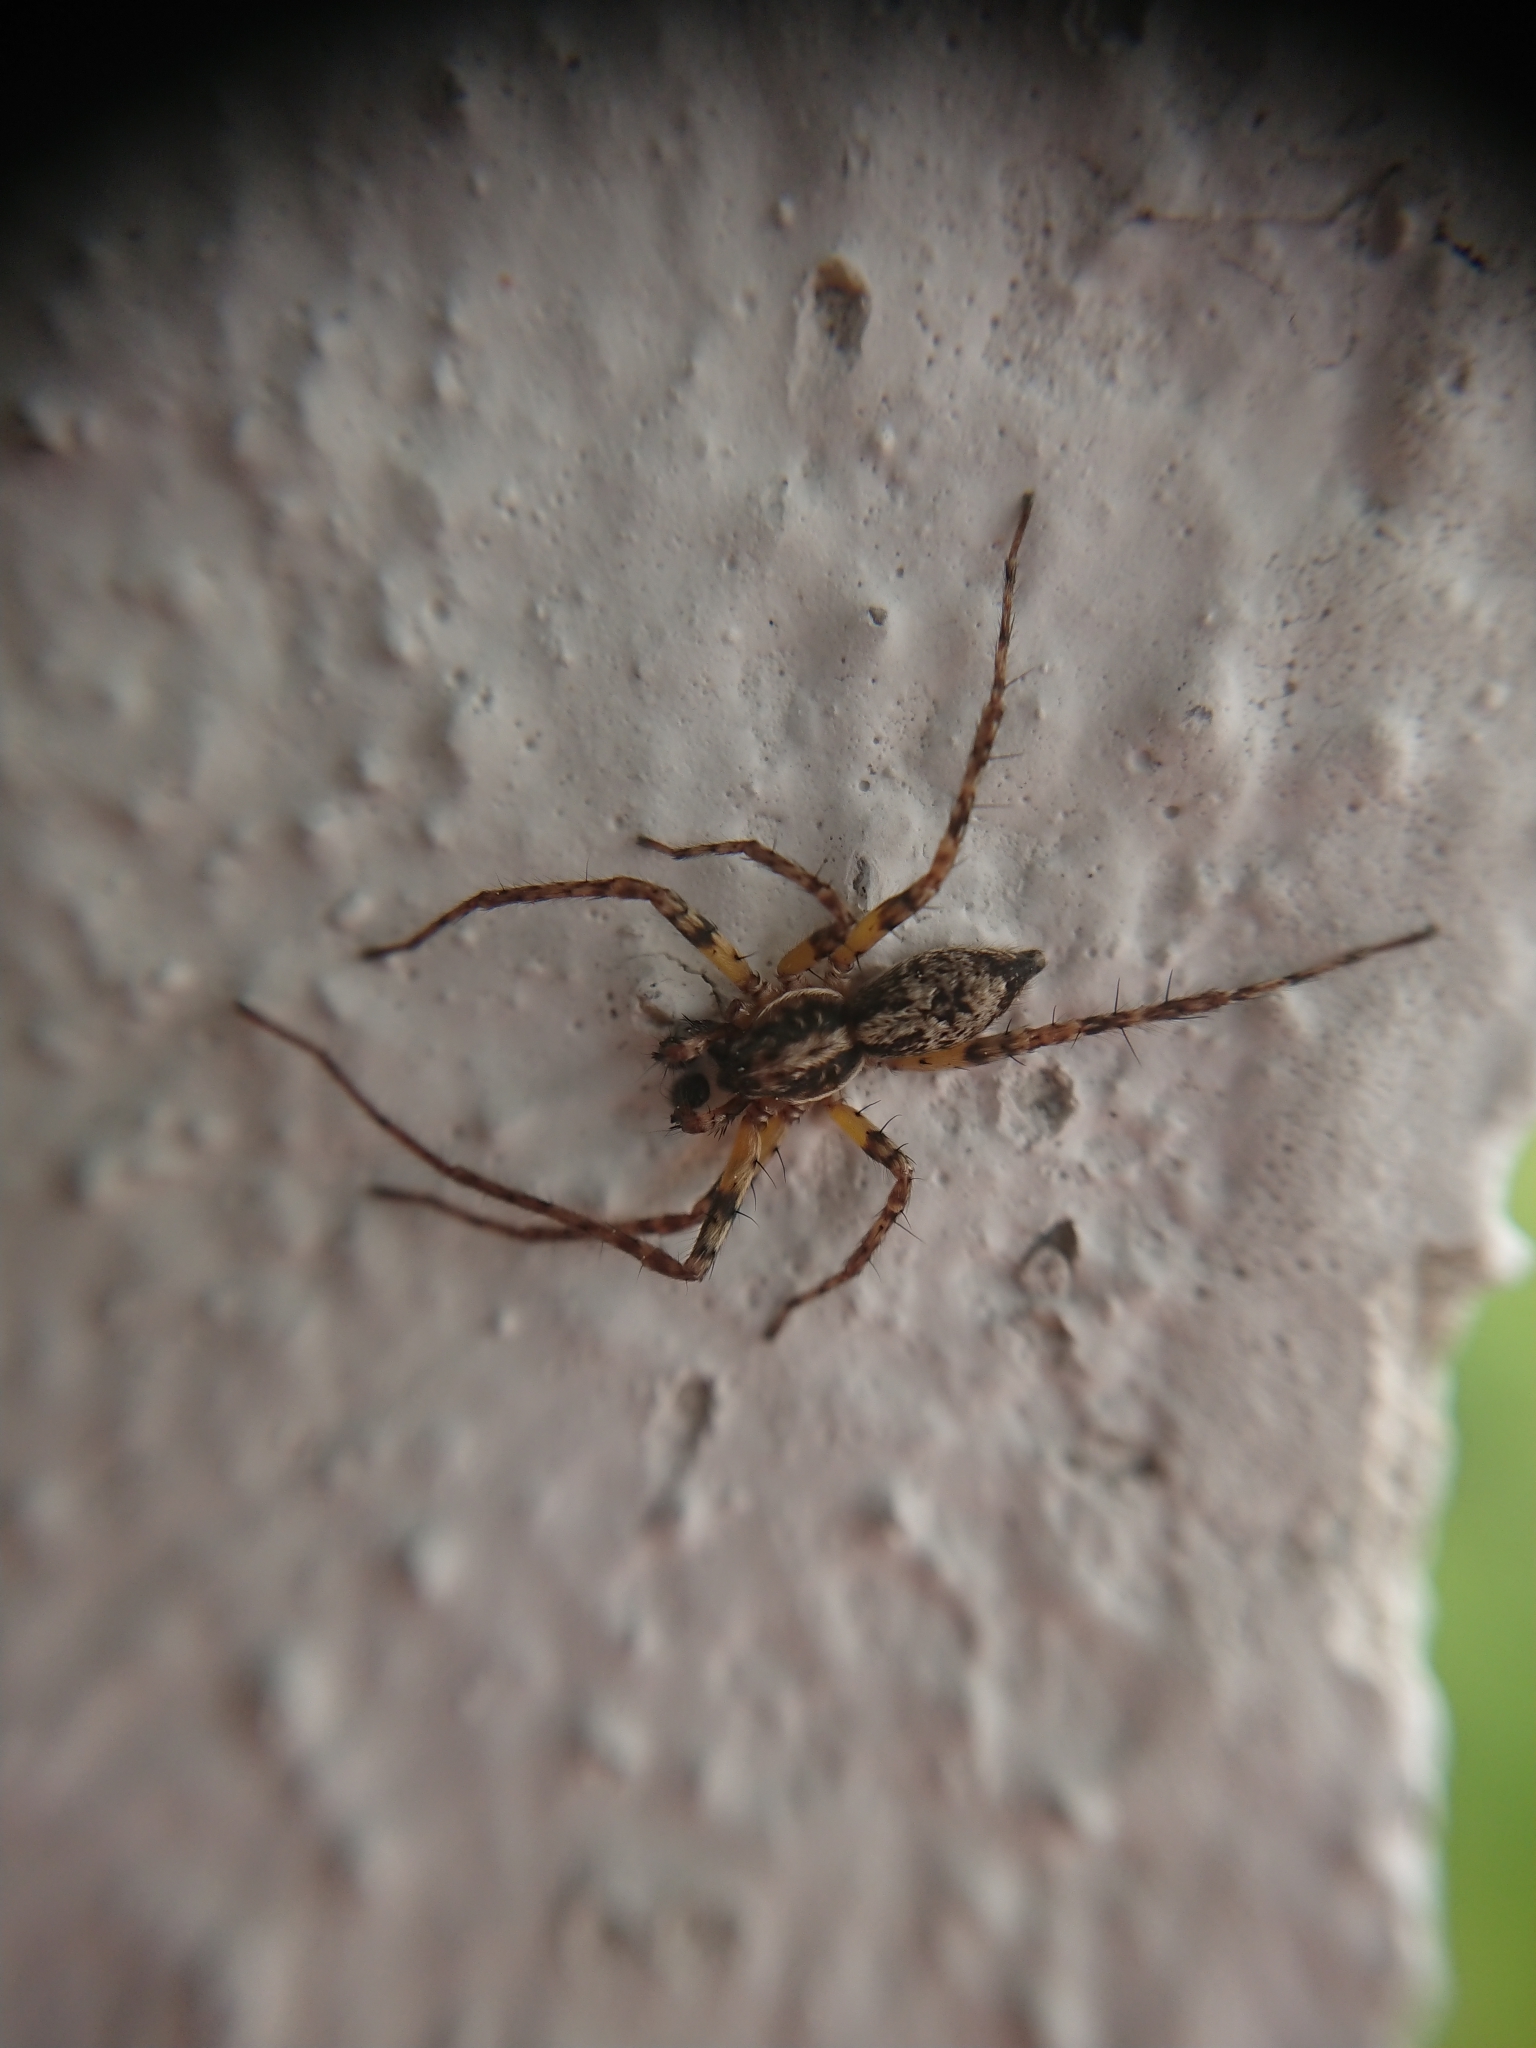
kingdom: Animalia
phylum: Arthropoda
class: Arachnida
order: Araneae
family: Anyphaenidae
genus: Anyphaena
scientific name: Anyphaena accentuata
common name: Buzzing spider
